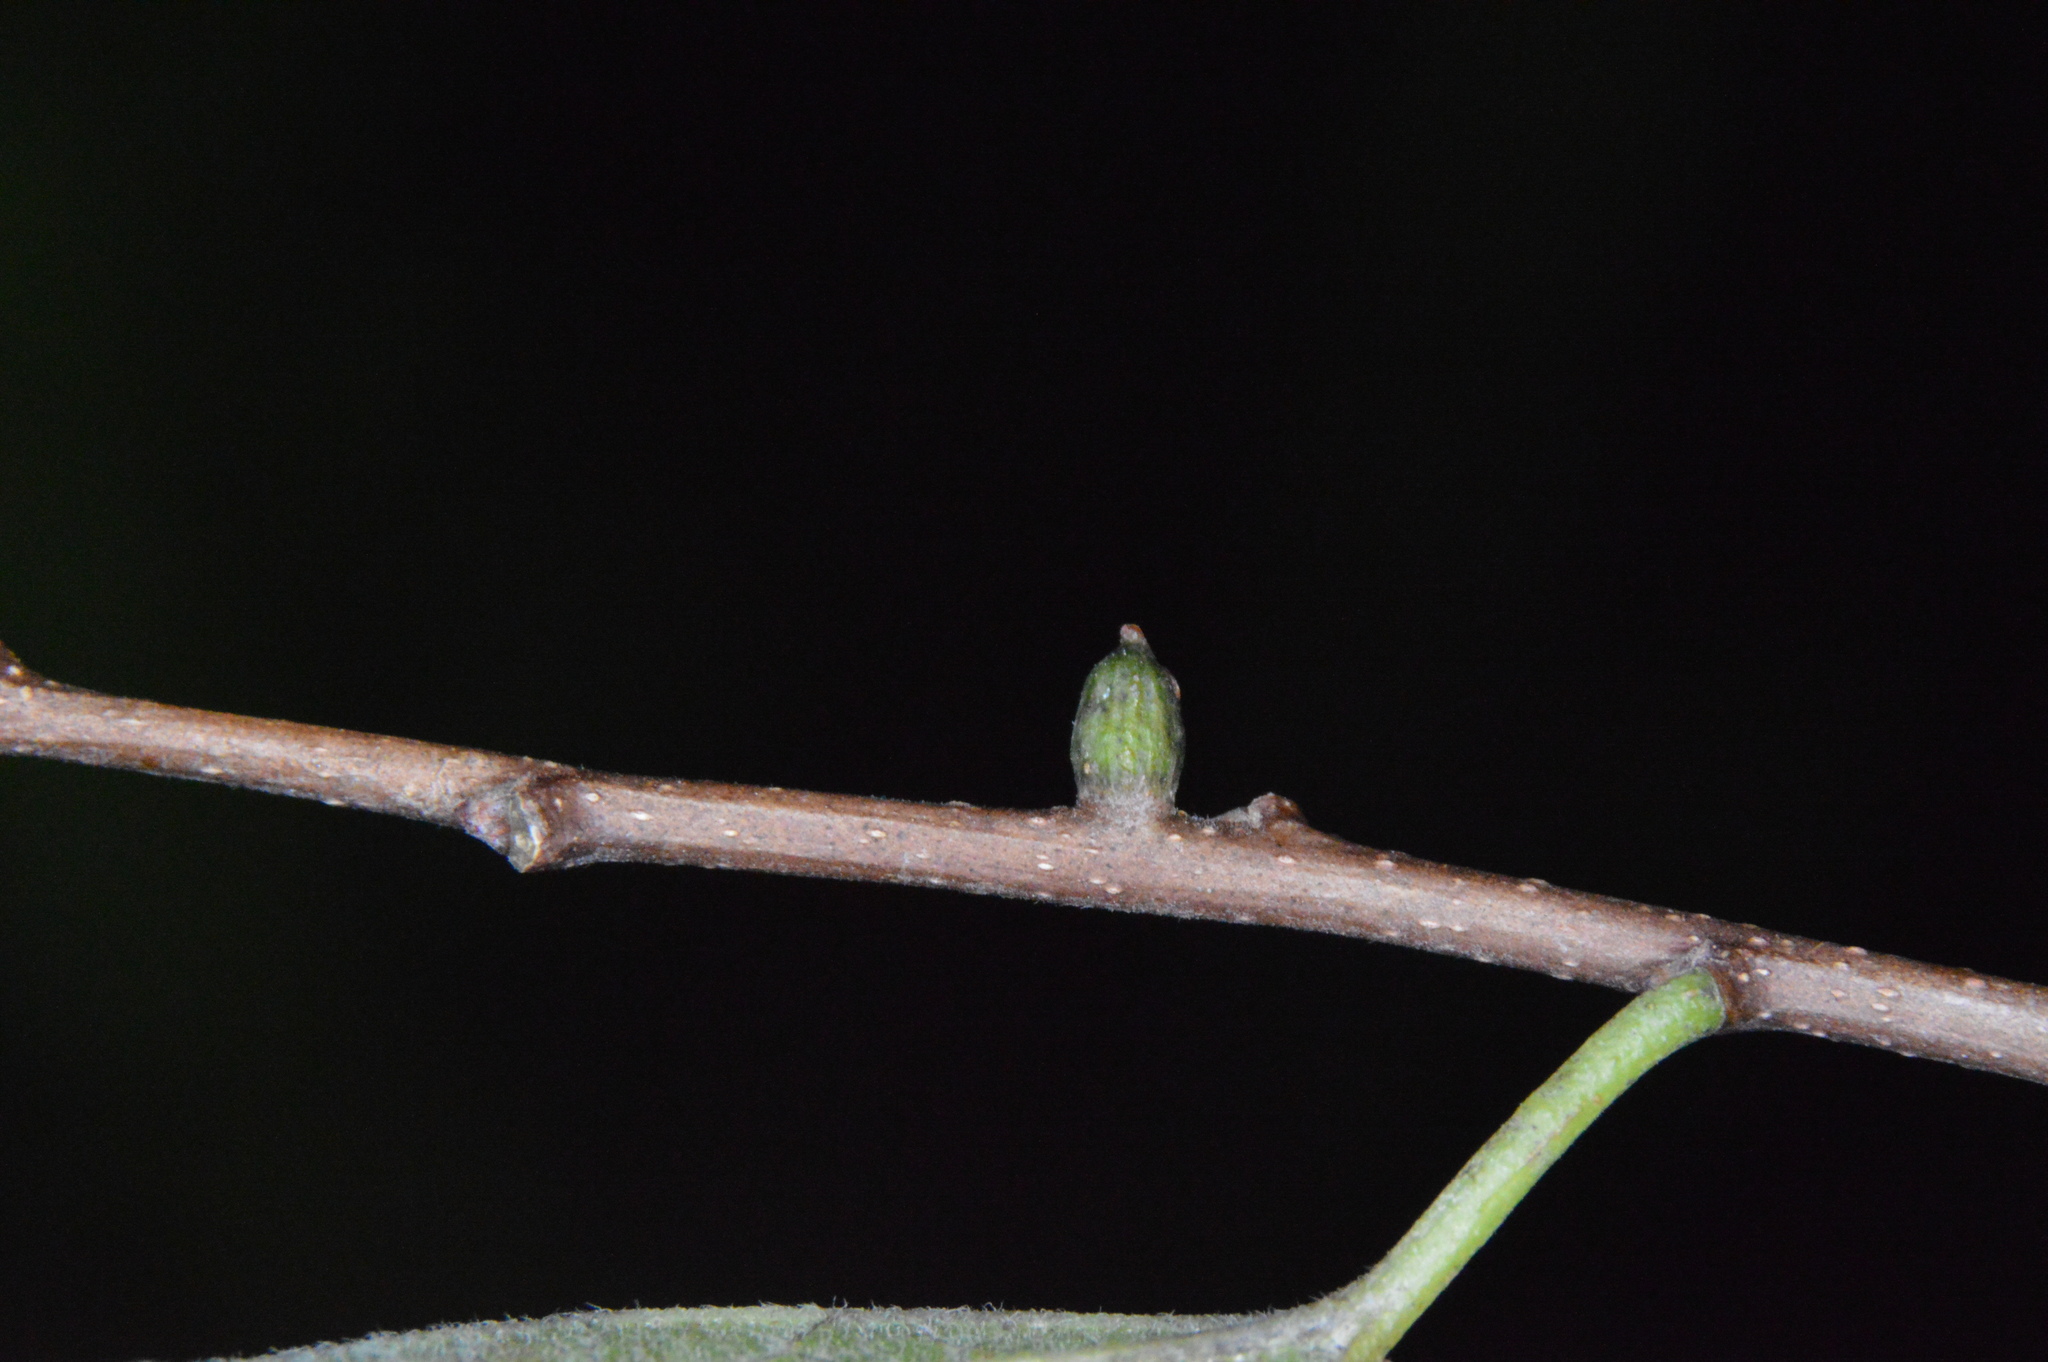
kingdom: Animalia
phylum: Arthropoda
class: Insecta
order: Diptera
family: Cecidomyiidae
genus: Celticecis
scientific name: Celticecis ramicola
